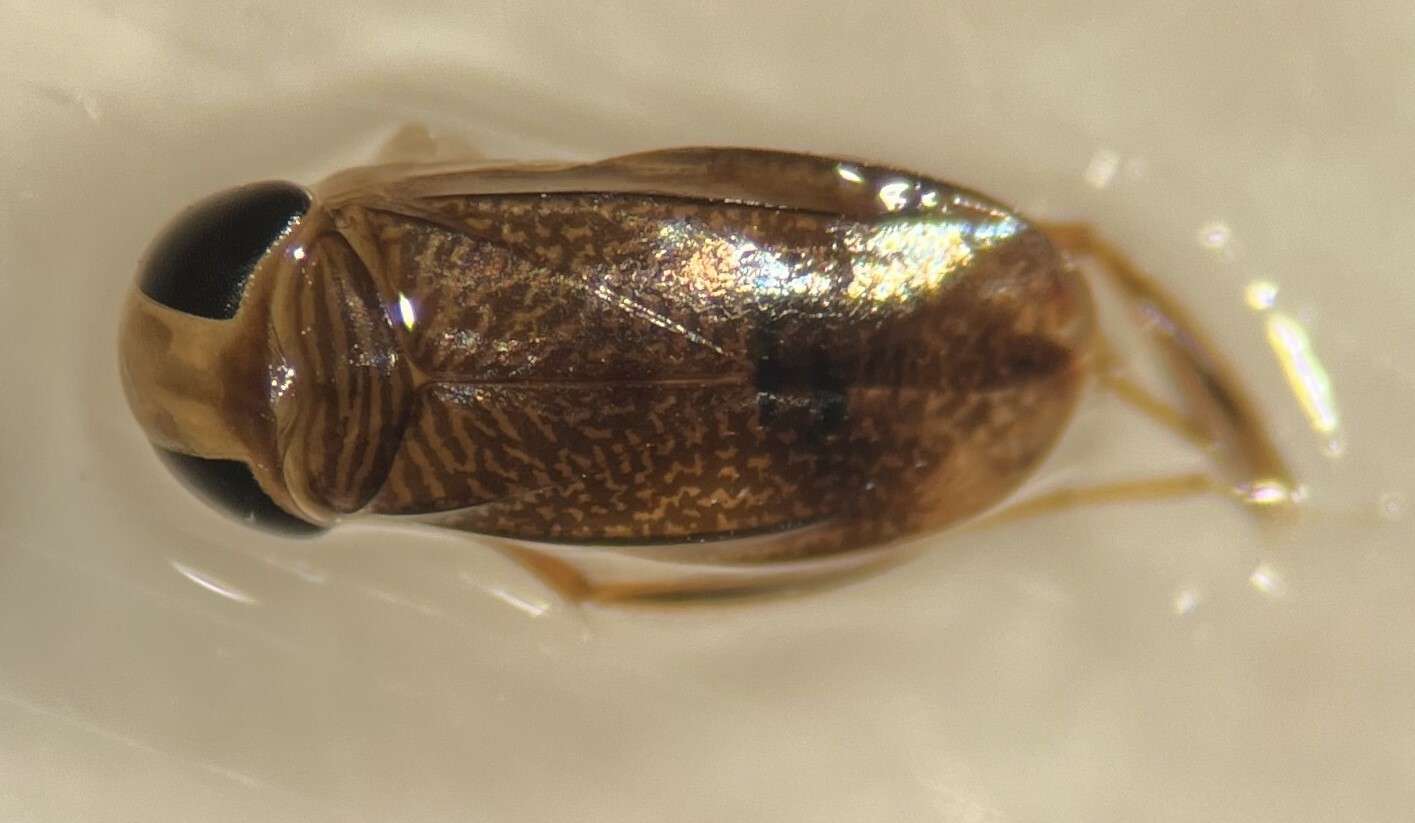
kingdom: Animalia
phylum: Arthropoda
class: Insecta
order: Hemiptera
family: Corixidae
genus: Sigara
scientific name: Sigara macrocepsoidea
